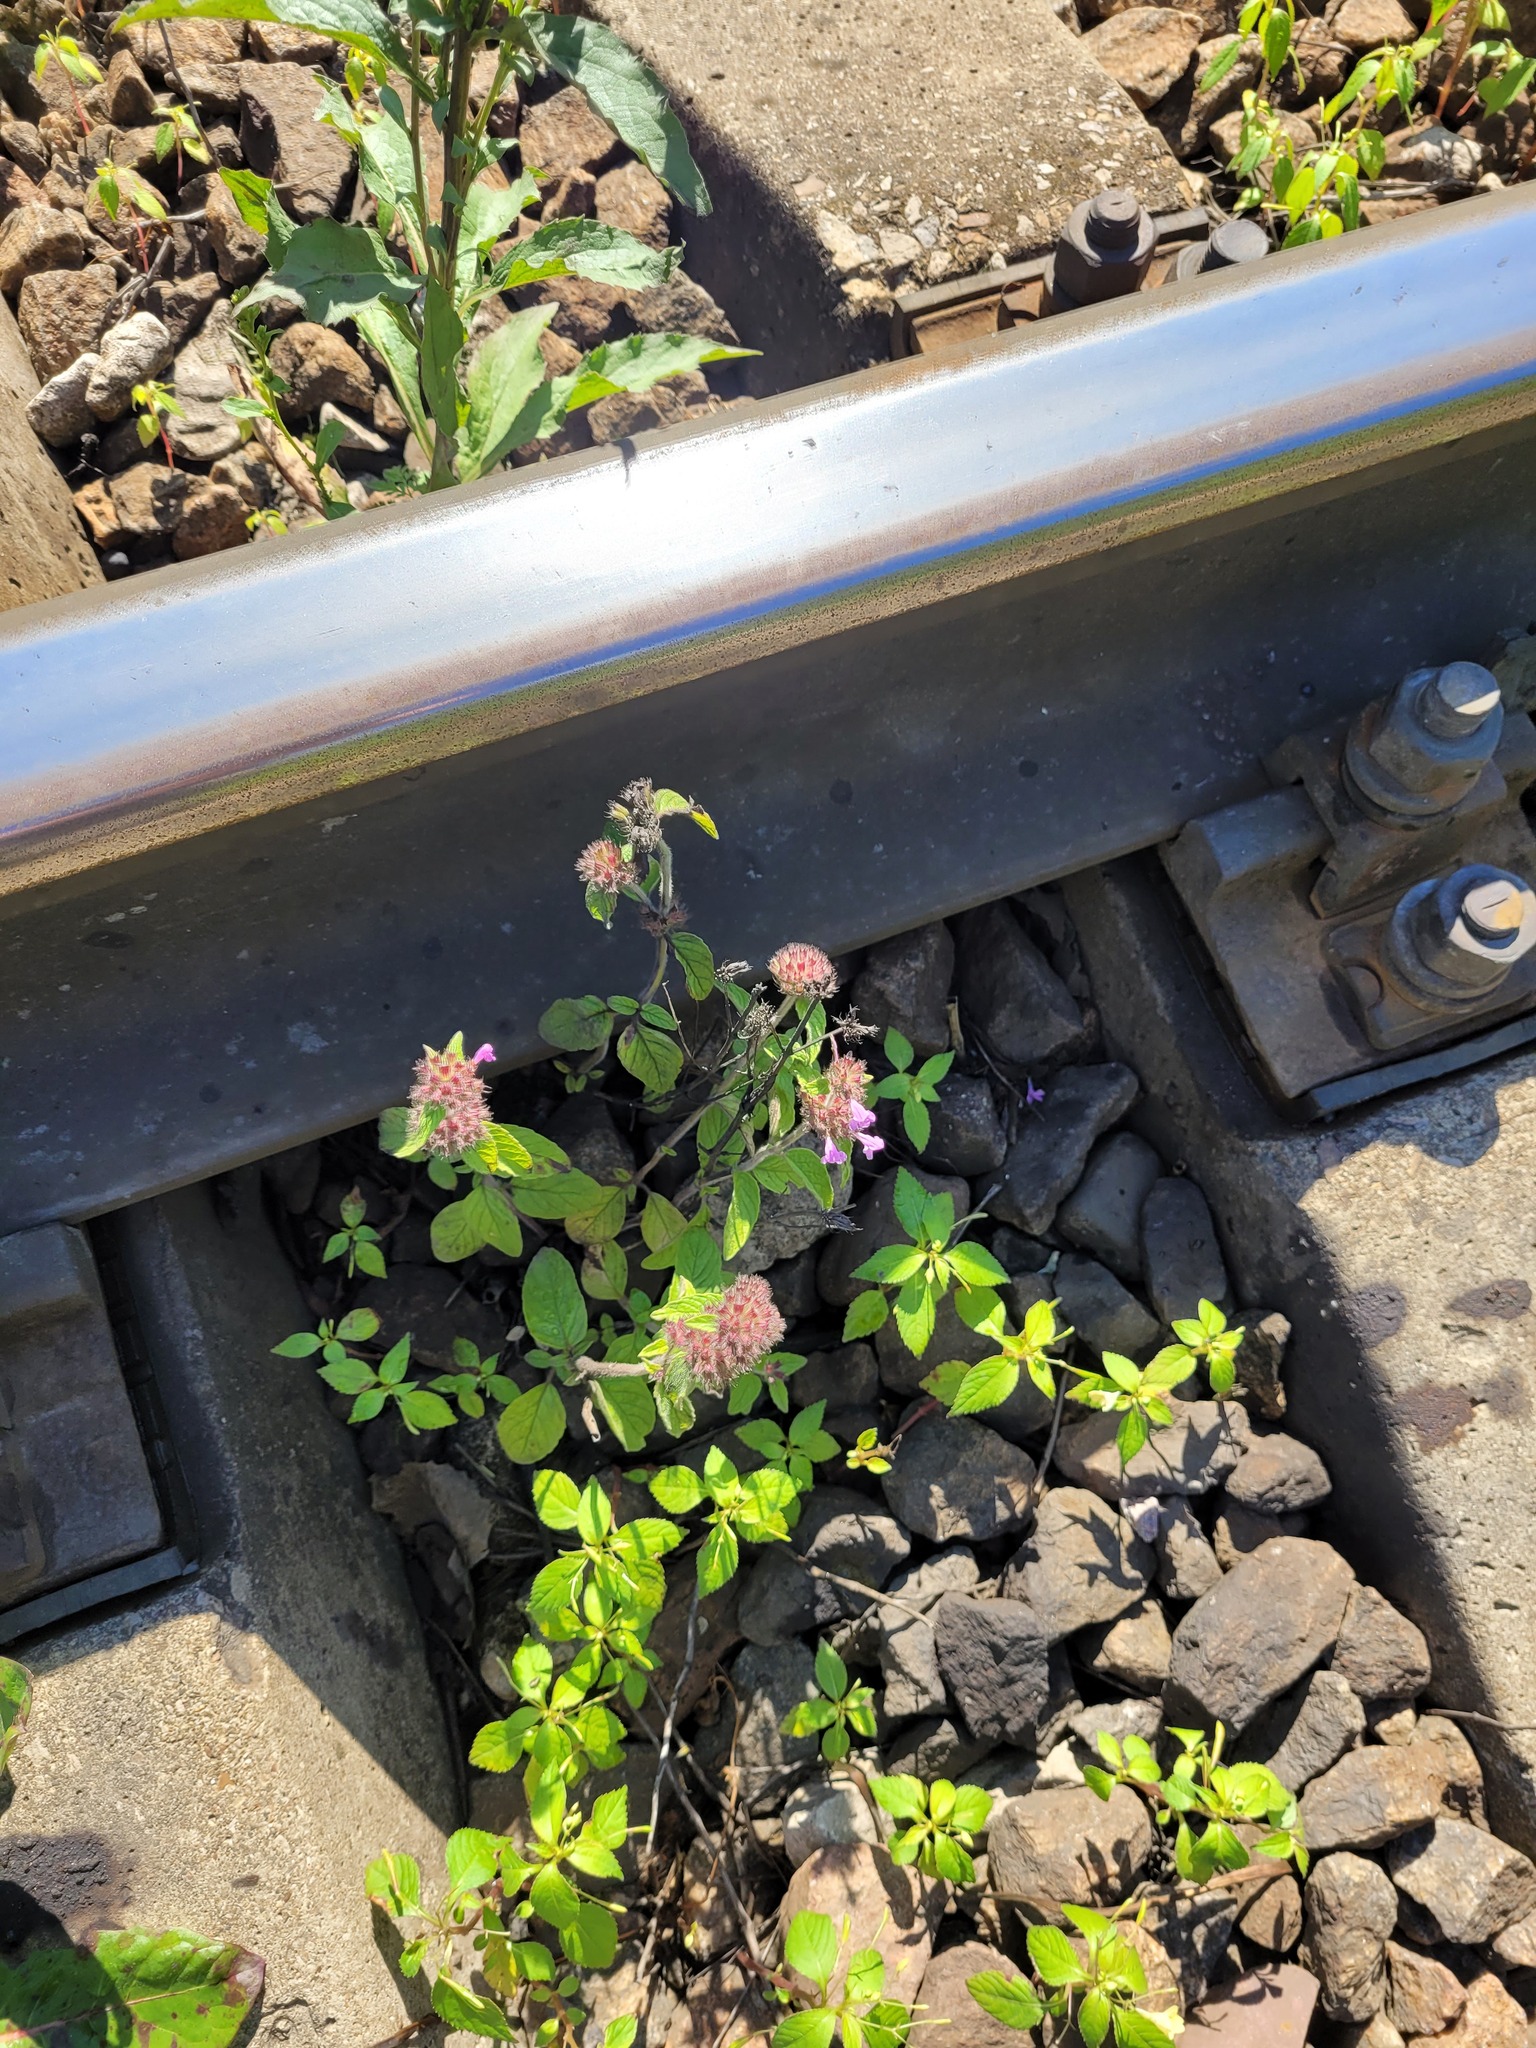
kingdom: Plantae
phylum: Tracheophyta
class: Magnoliopsida
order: Lamiales
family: Lamiaceae
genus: Clinopodium
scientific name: Clinopodium vulgare
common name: Wild basil
